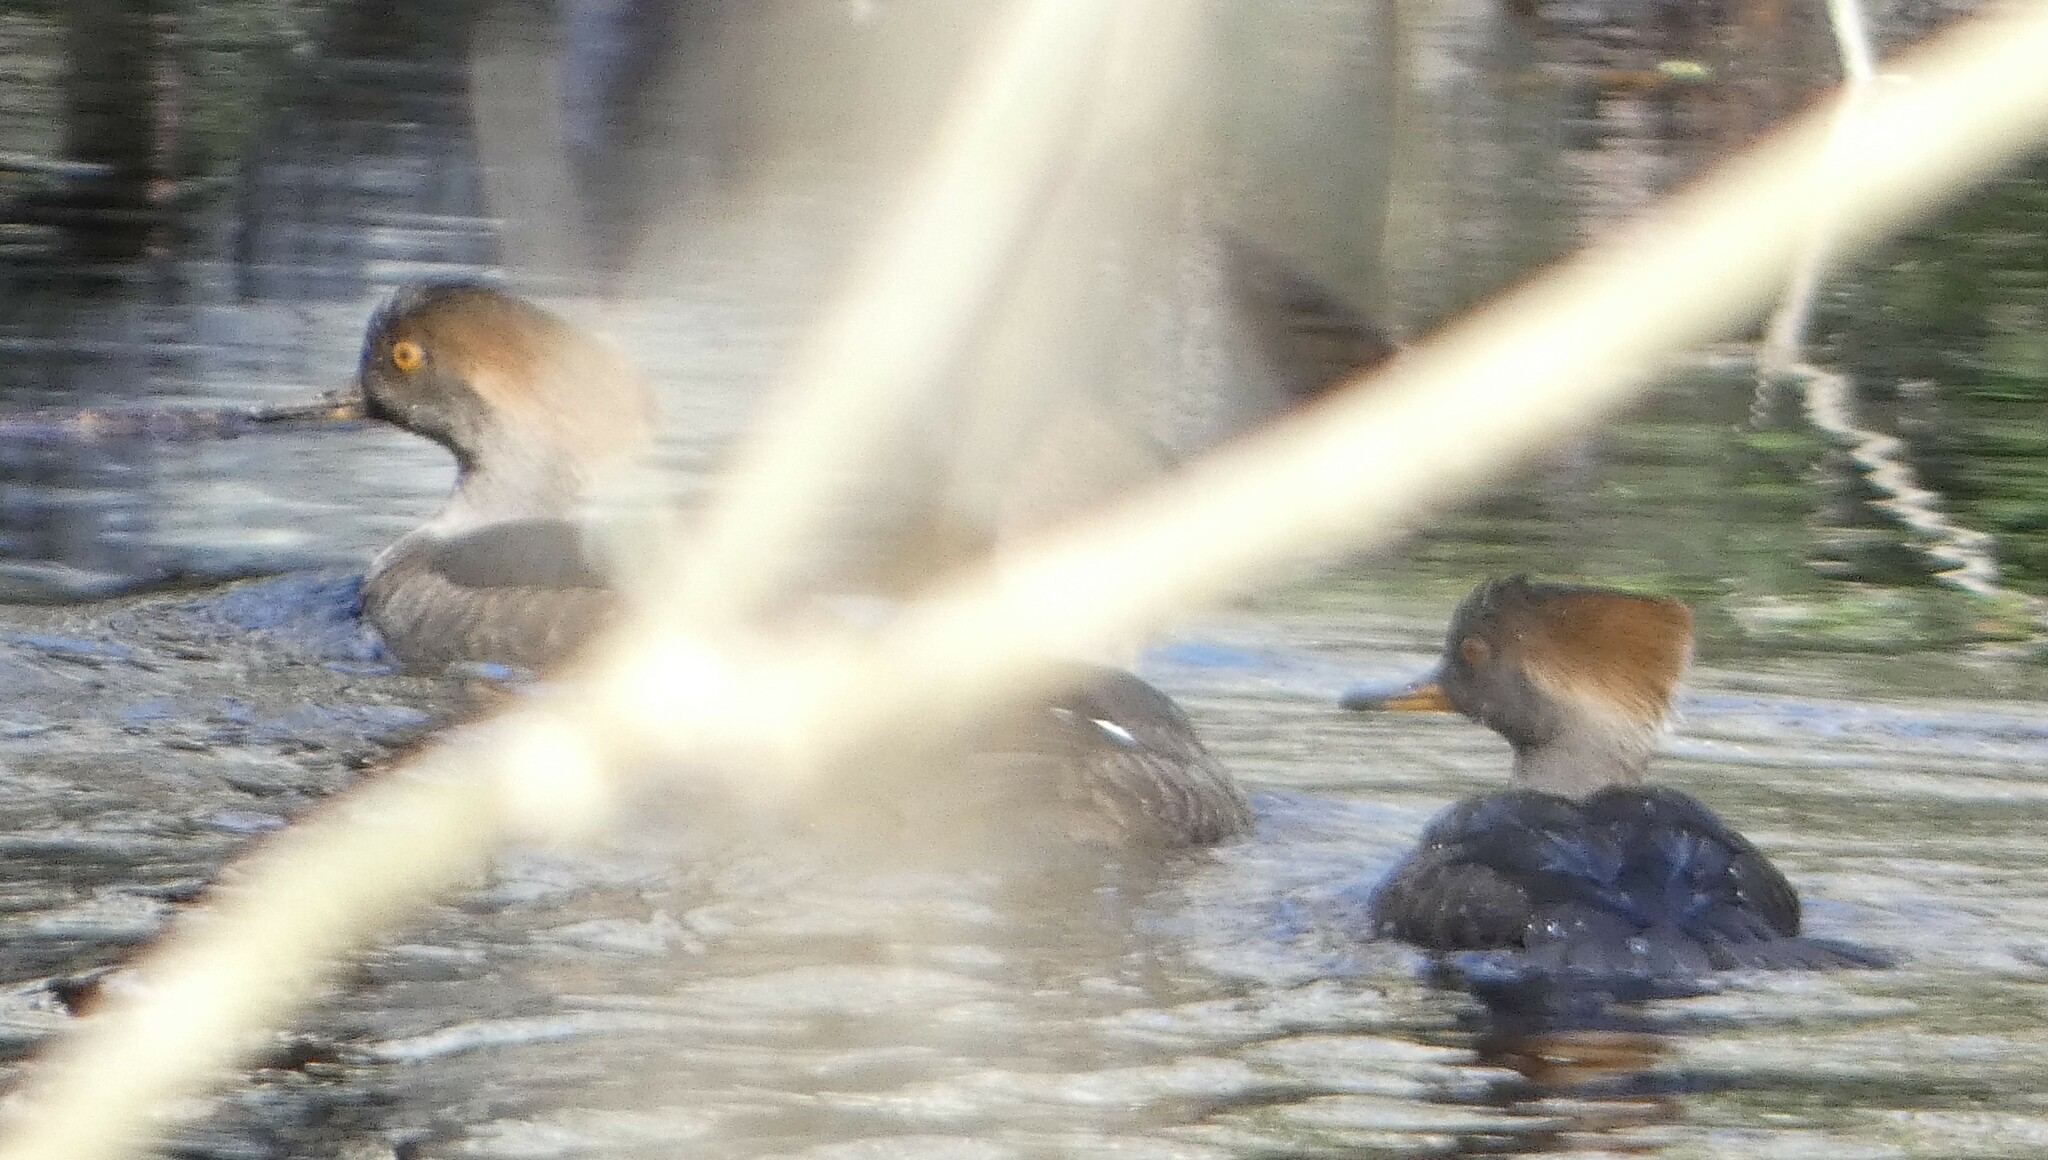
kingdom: Animalia
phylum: Chordata
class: Aves
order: Anseriformes
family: Anatidae
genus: Lophodytes
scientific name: Lophodytes cucullatus
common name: Hooded merganser
